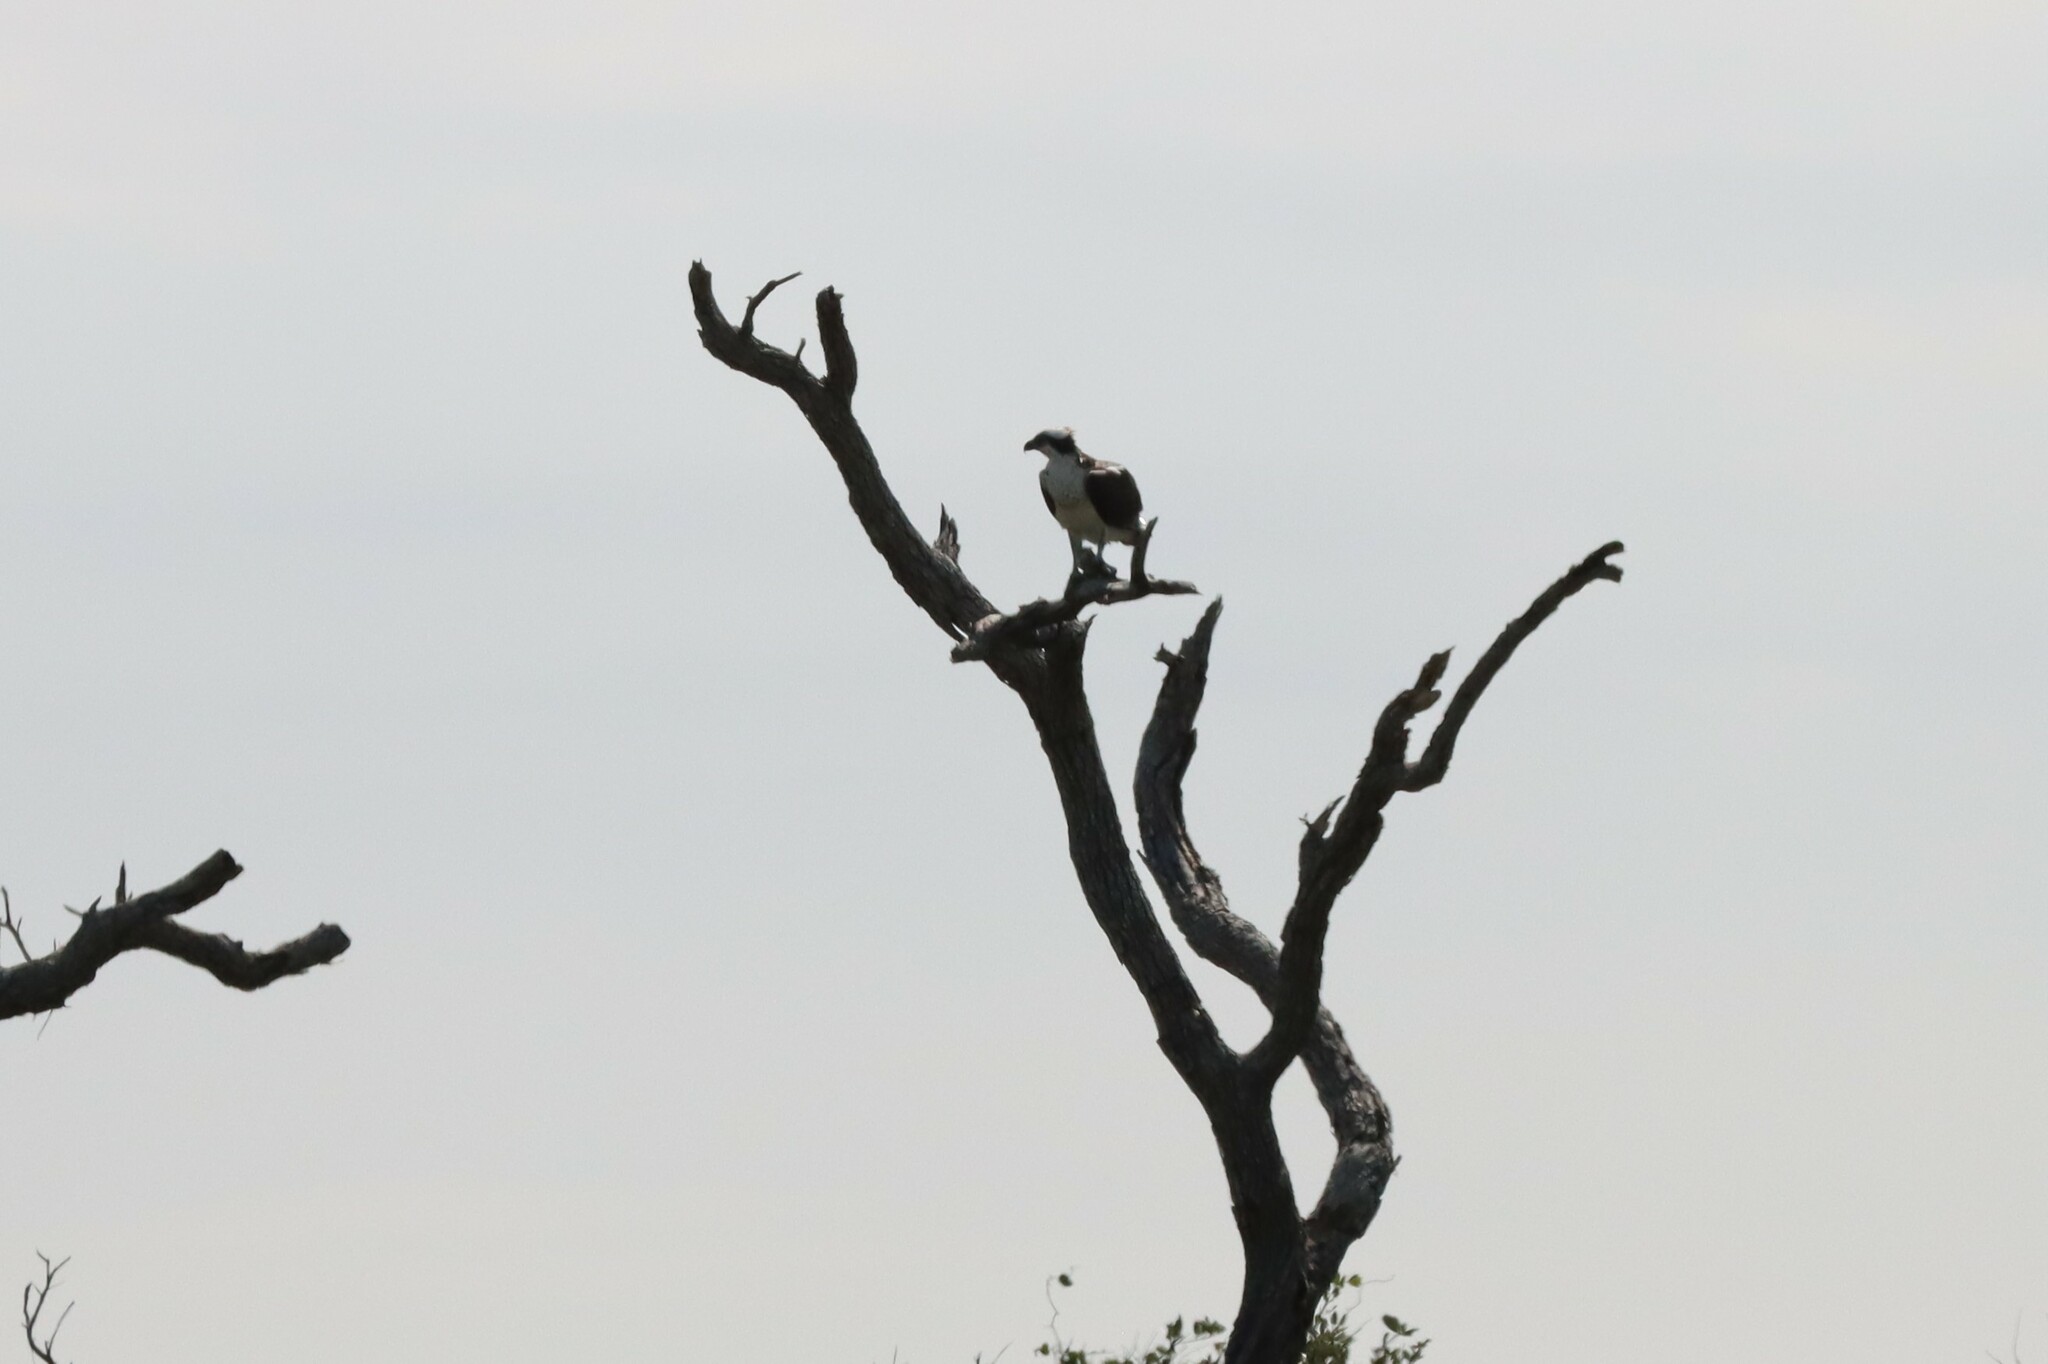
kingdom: Animalia
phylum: Chordata
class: Aves
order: Accipitriformes
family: Pandionidae
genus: Pandion
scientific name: Pandion haliaetus
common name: Osprey
